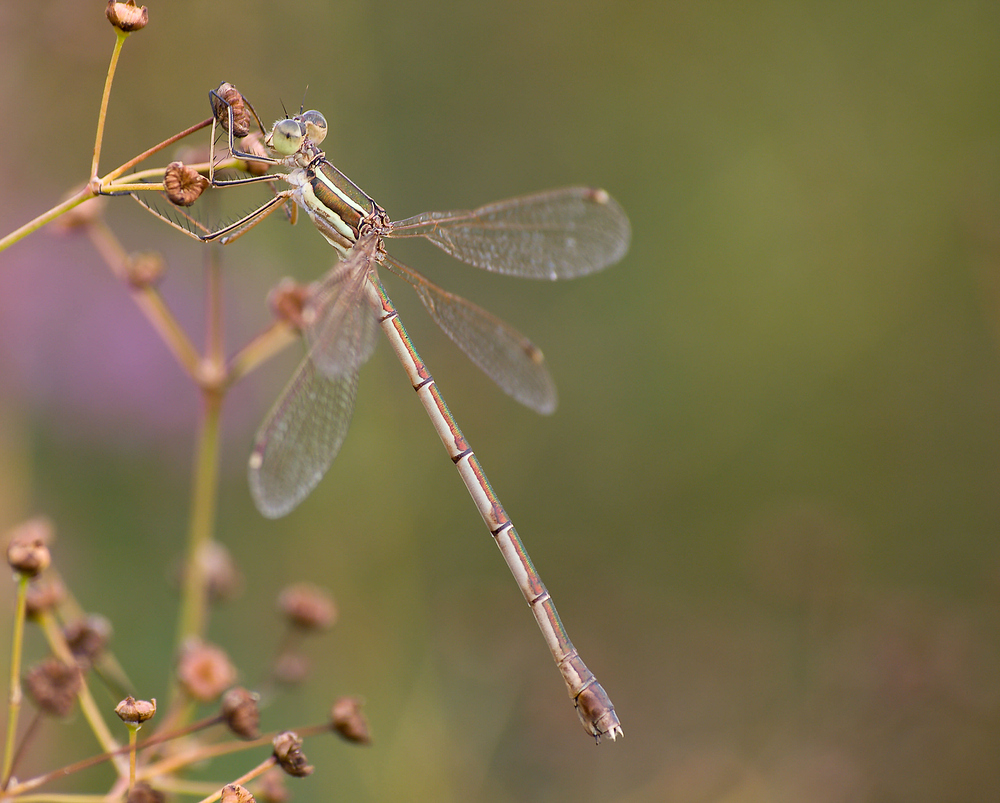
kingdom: Animalia
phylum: Arthropoda
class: Insecta
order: Odonata
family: Lestidae
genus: Lestes
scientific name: Lestes barbarus
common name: Migrant spreadwing
